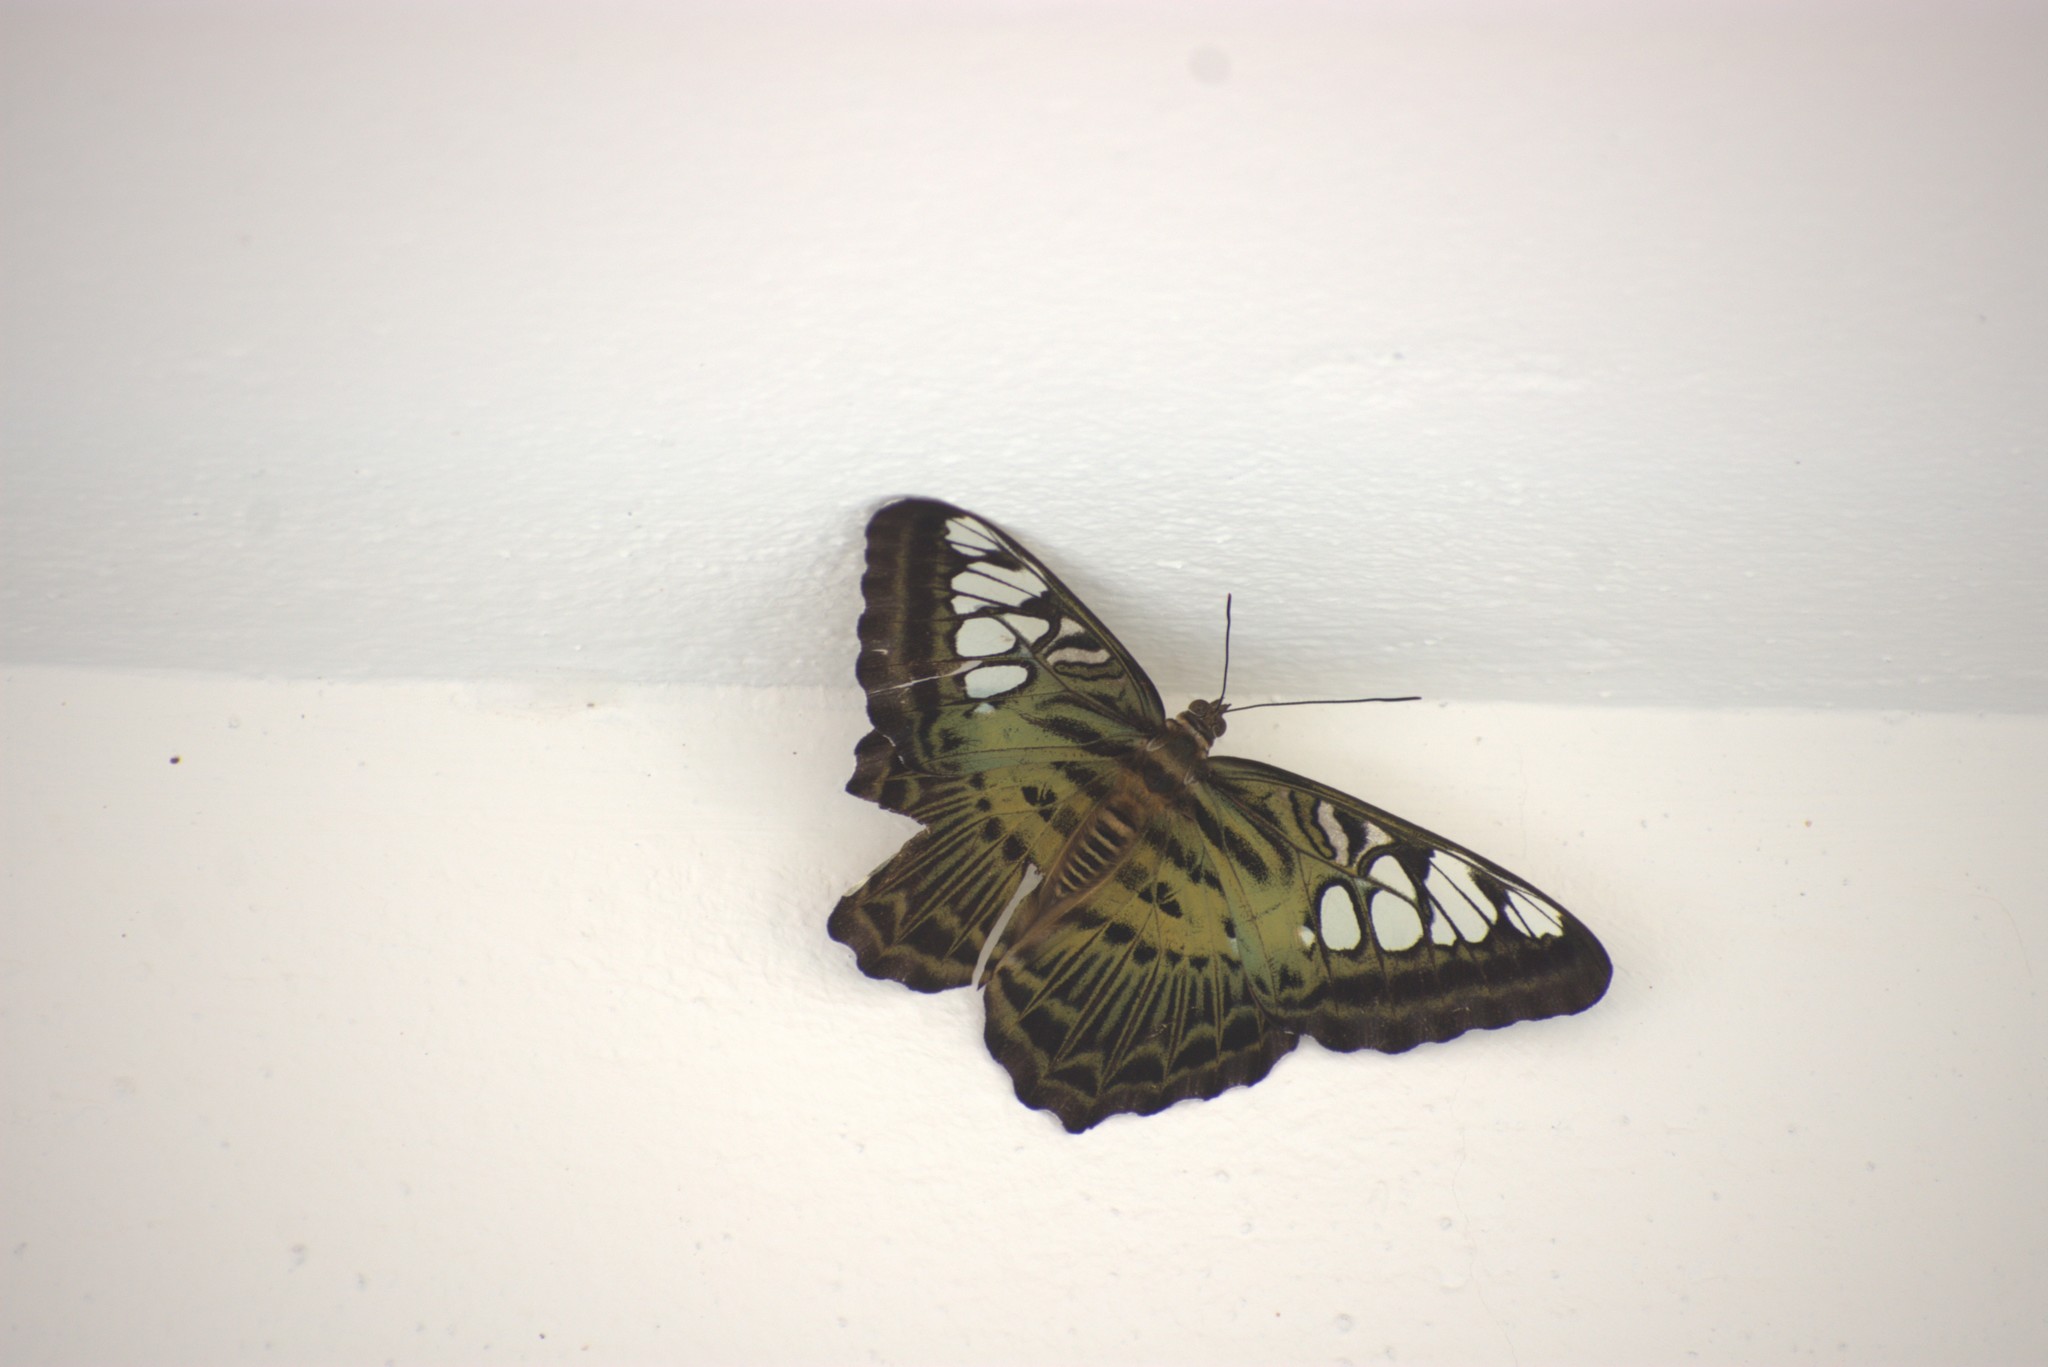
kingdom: Animalia
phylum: Arthropoda
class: Insecta
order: Lepidoptera
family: Nymphalidae
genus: Kallima
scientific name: Kallima sylvia
